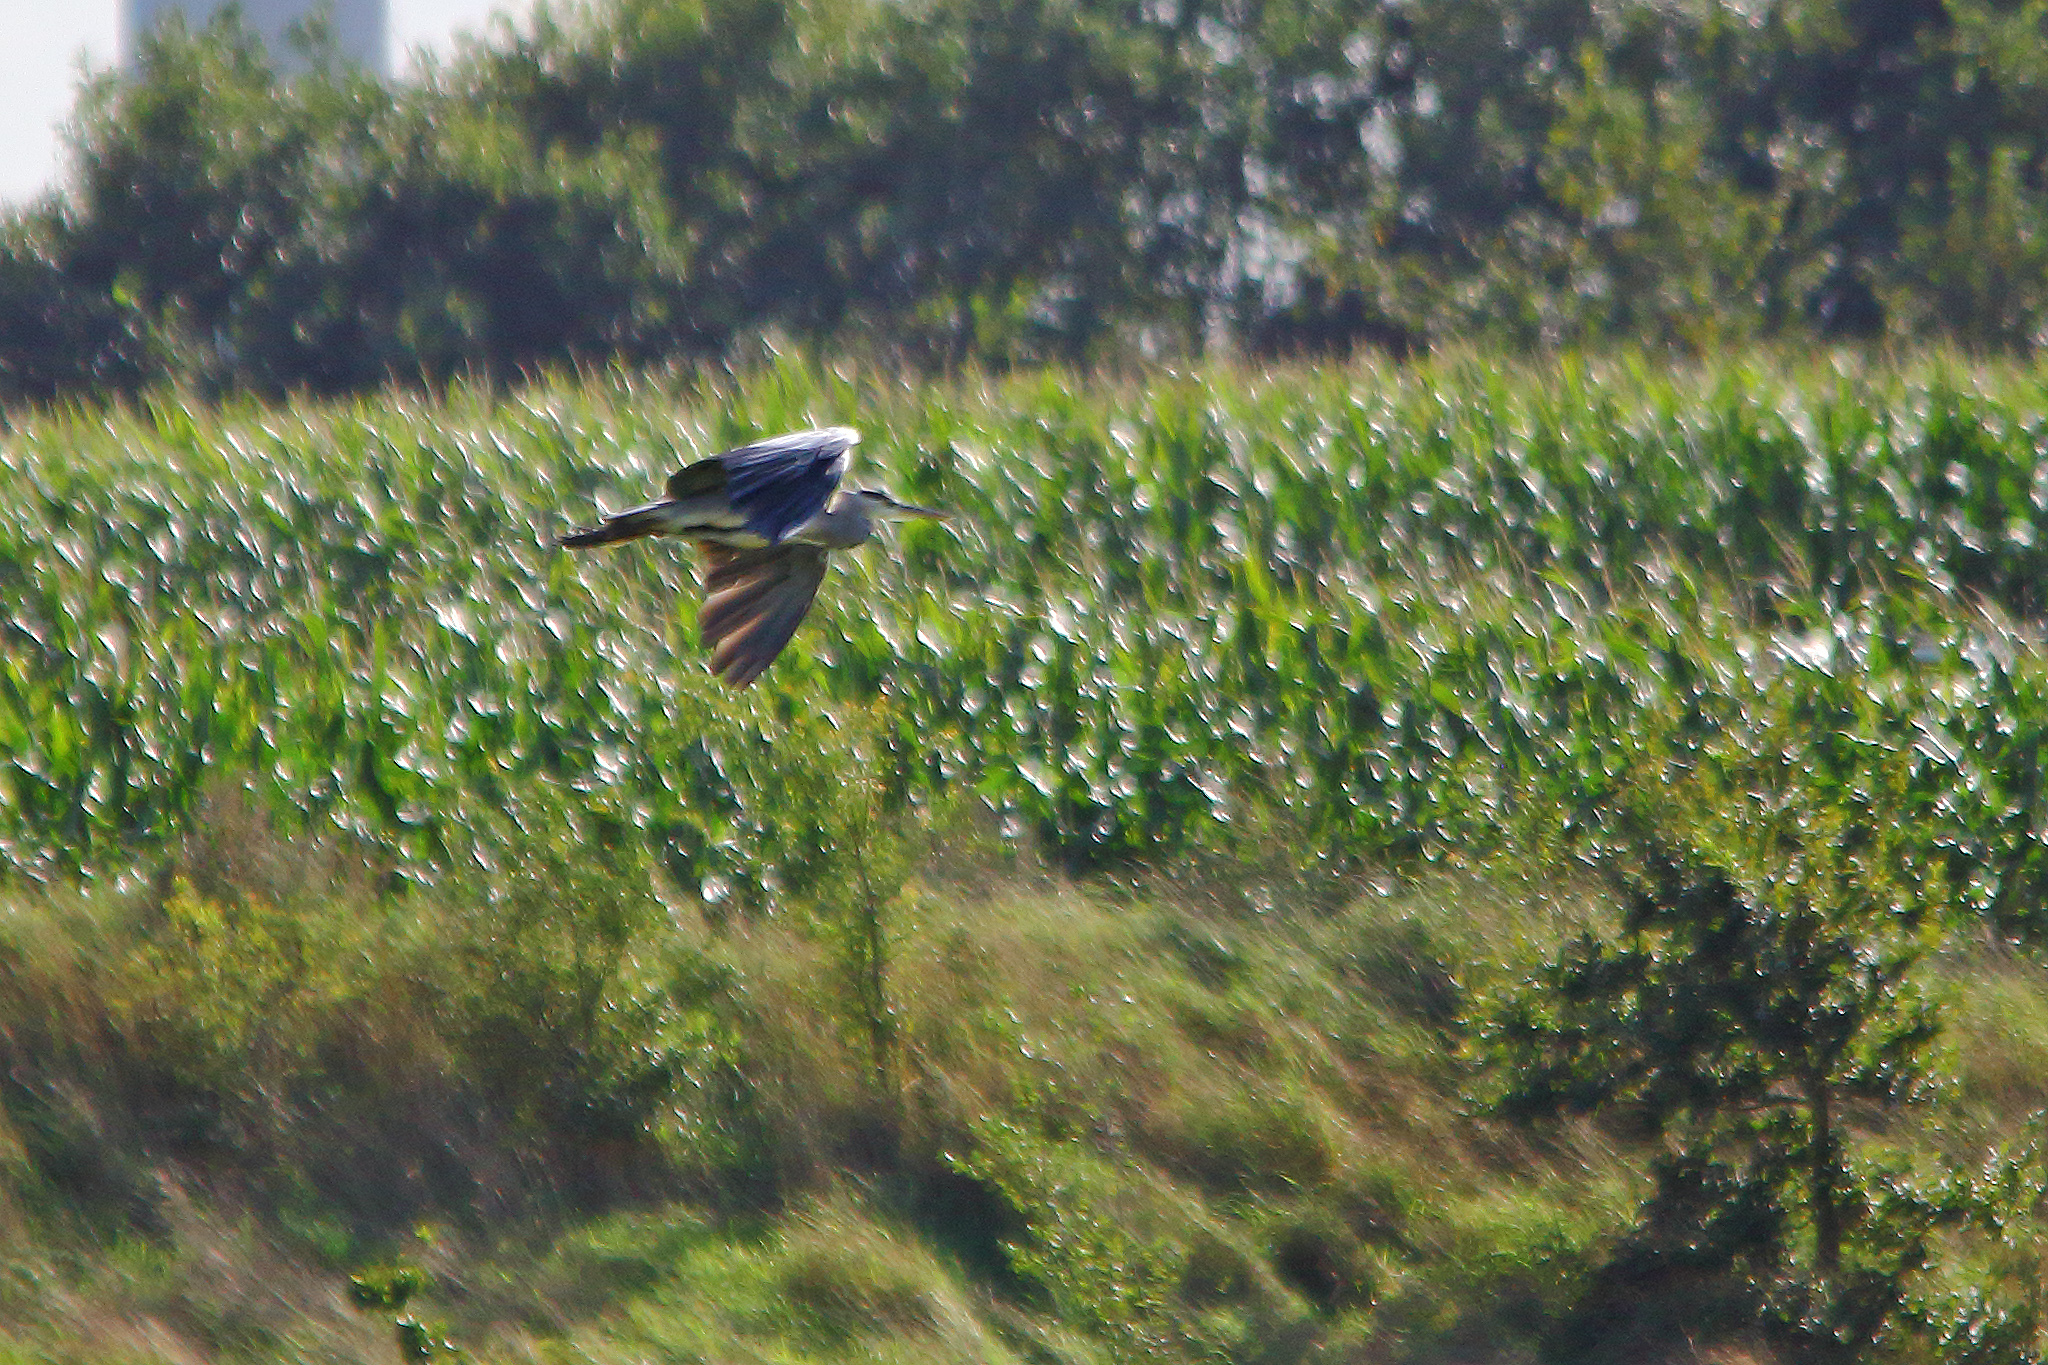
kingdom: Animalia
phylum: Chordata
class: Aves
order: Pelecaniformes
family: Ardeidae
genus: Ardea
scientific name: Ardea cinerea
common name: Grey heron
